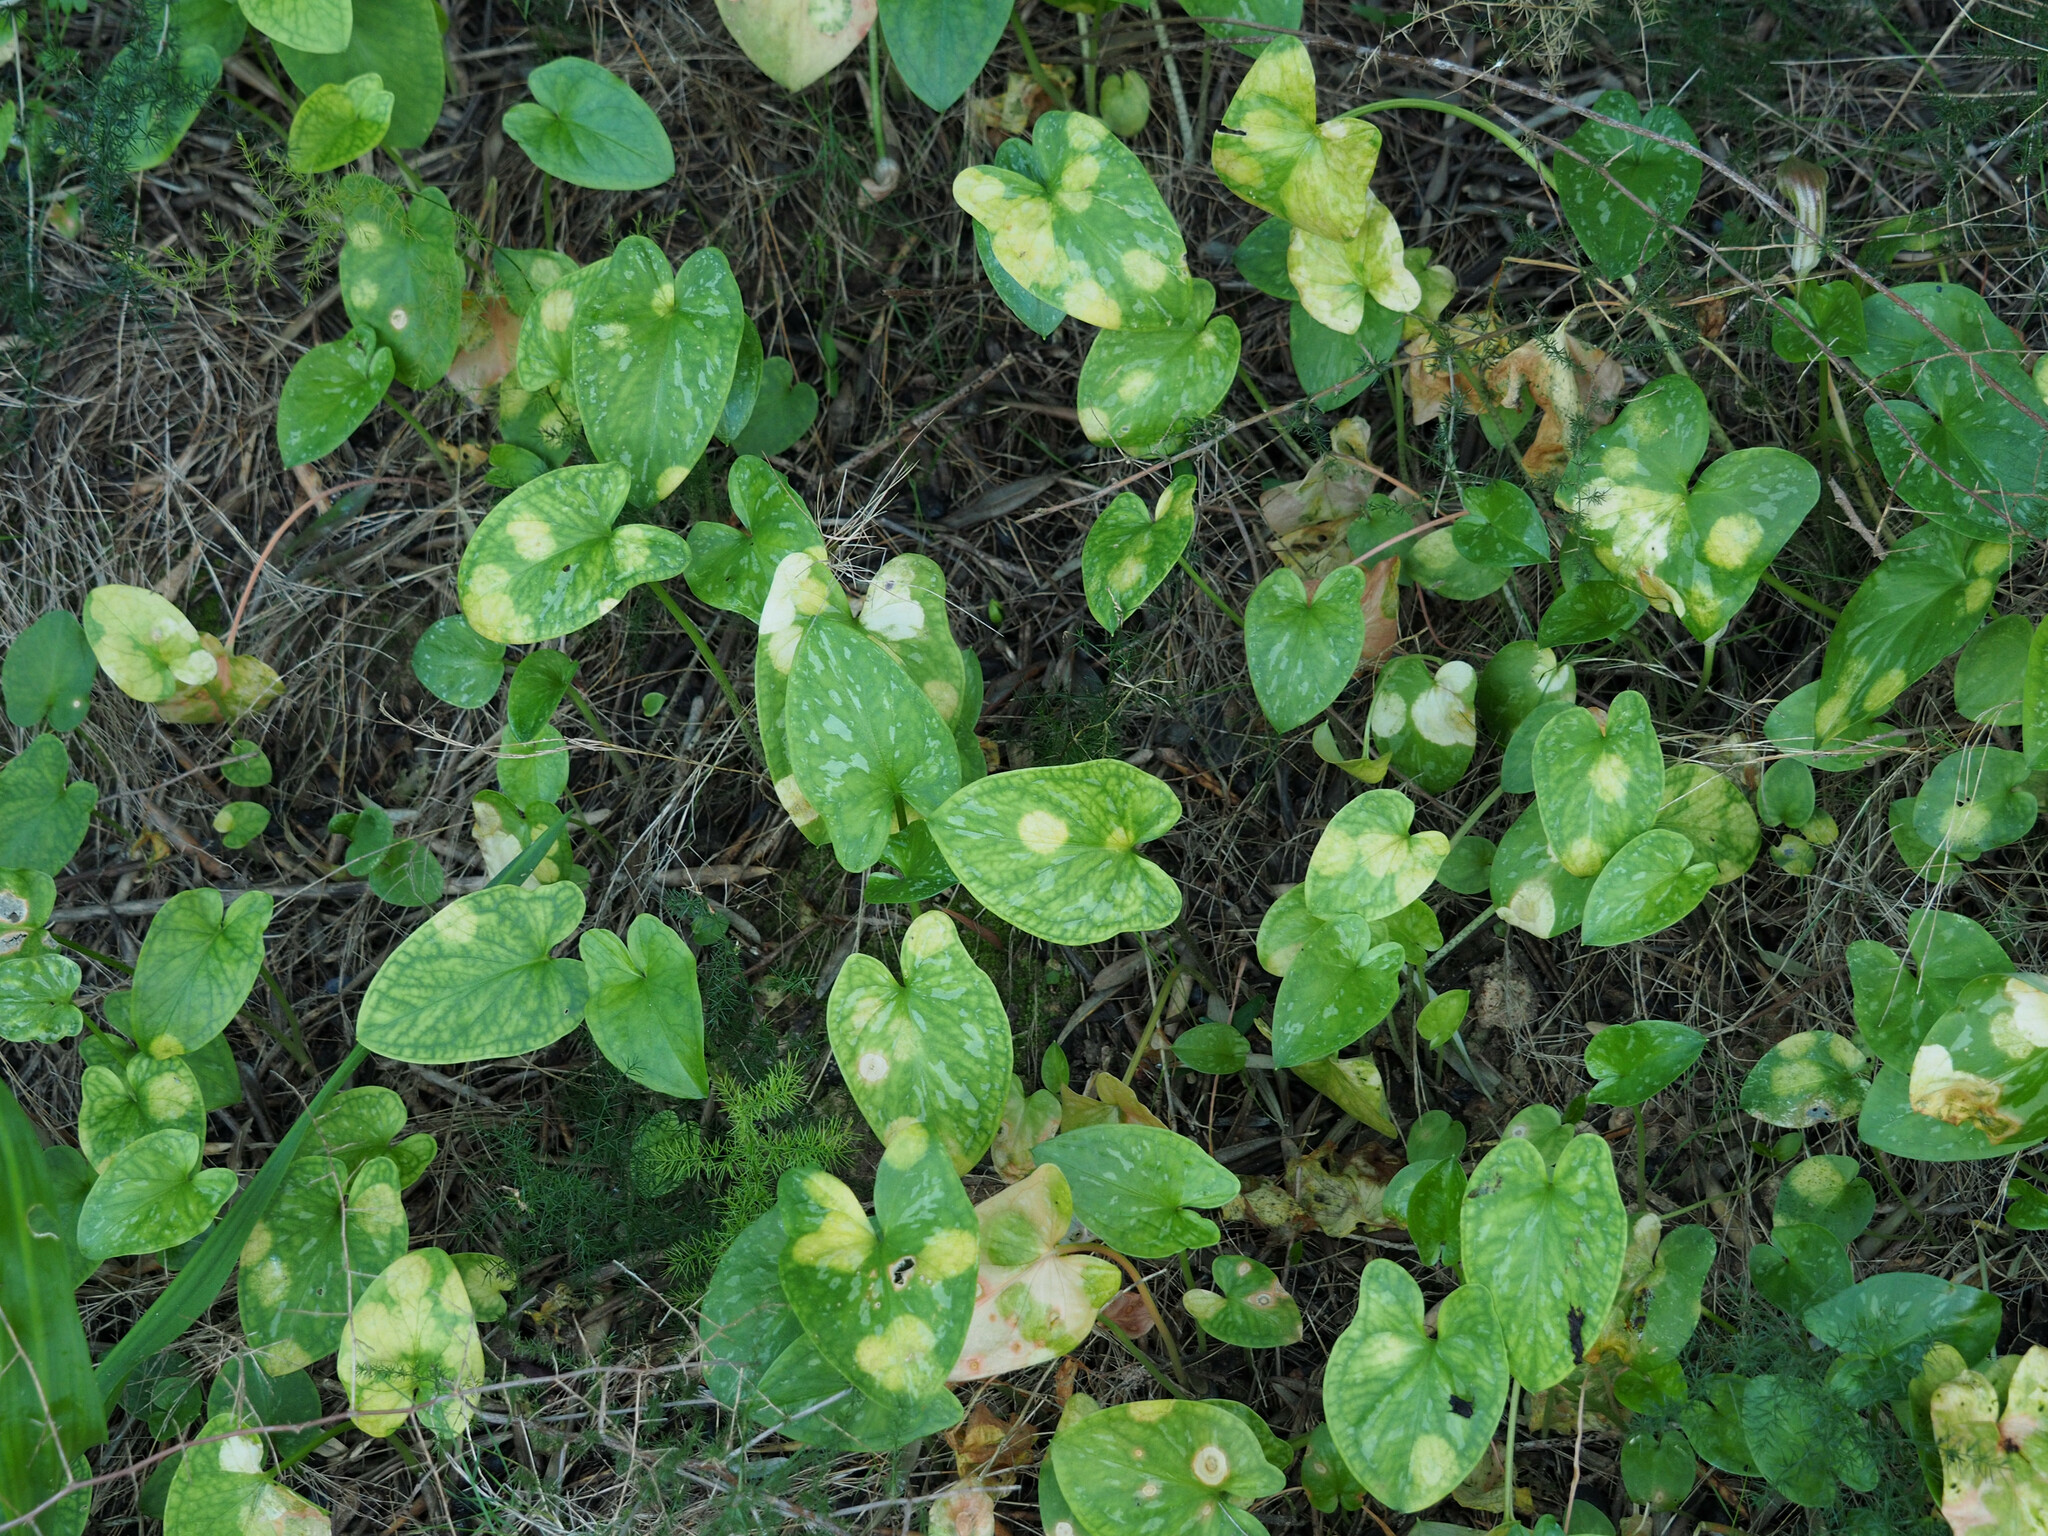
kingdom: Plantae
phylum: Tracheophyta
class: Liliopsida
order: Alismatales
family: Araceae
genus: Arisarum
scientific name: Arisarum vulgare
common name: Common arisarum
